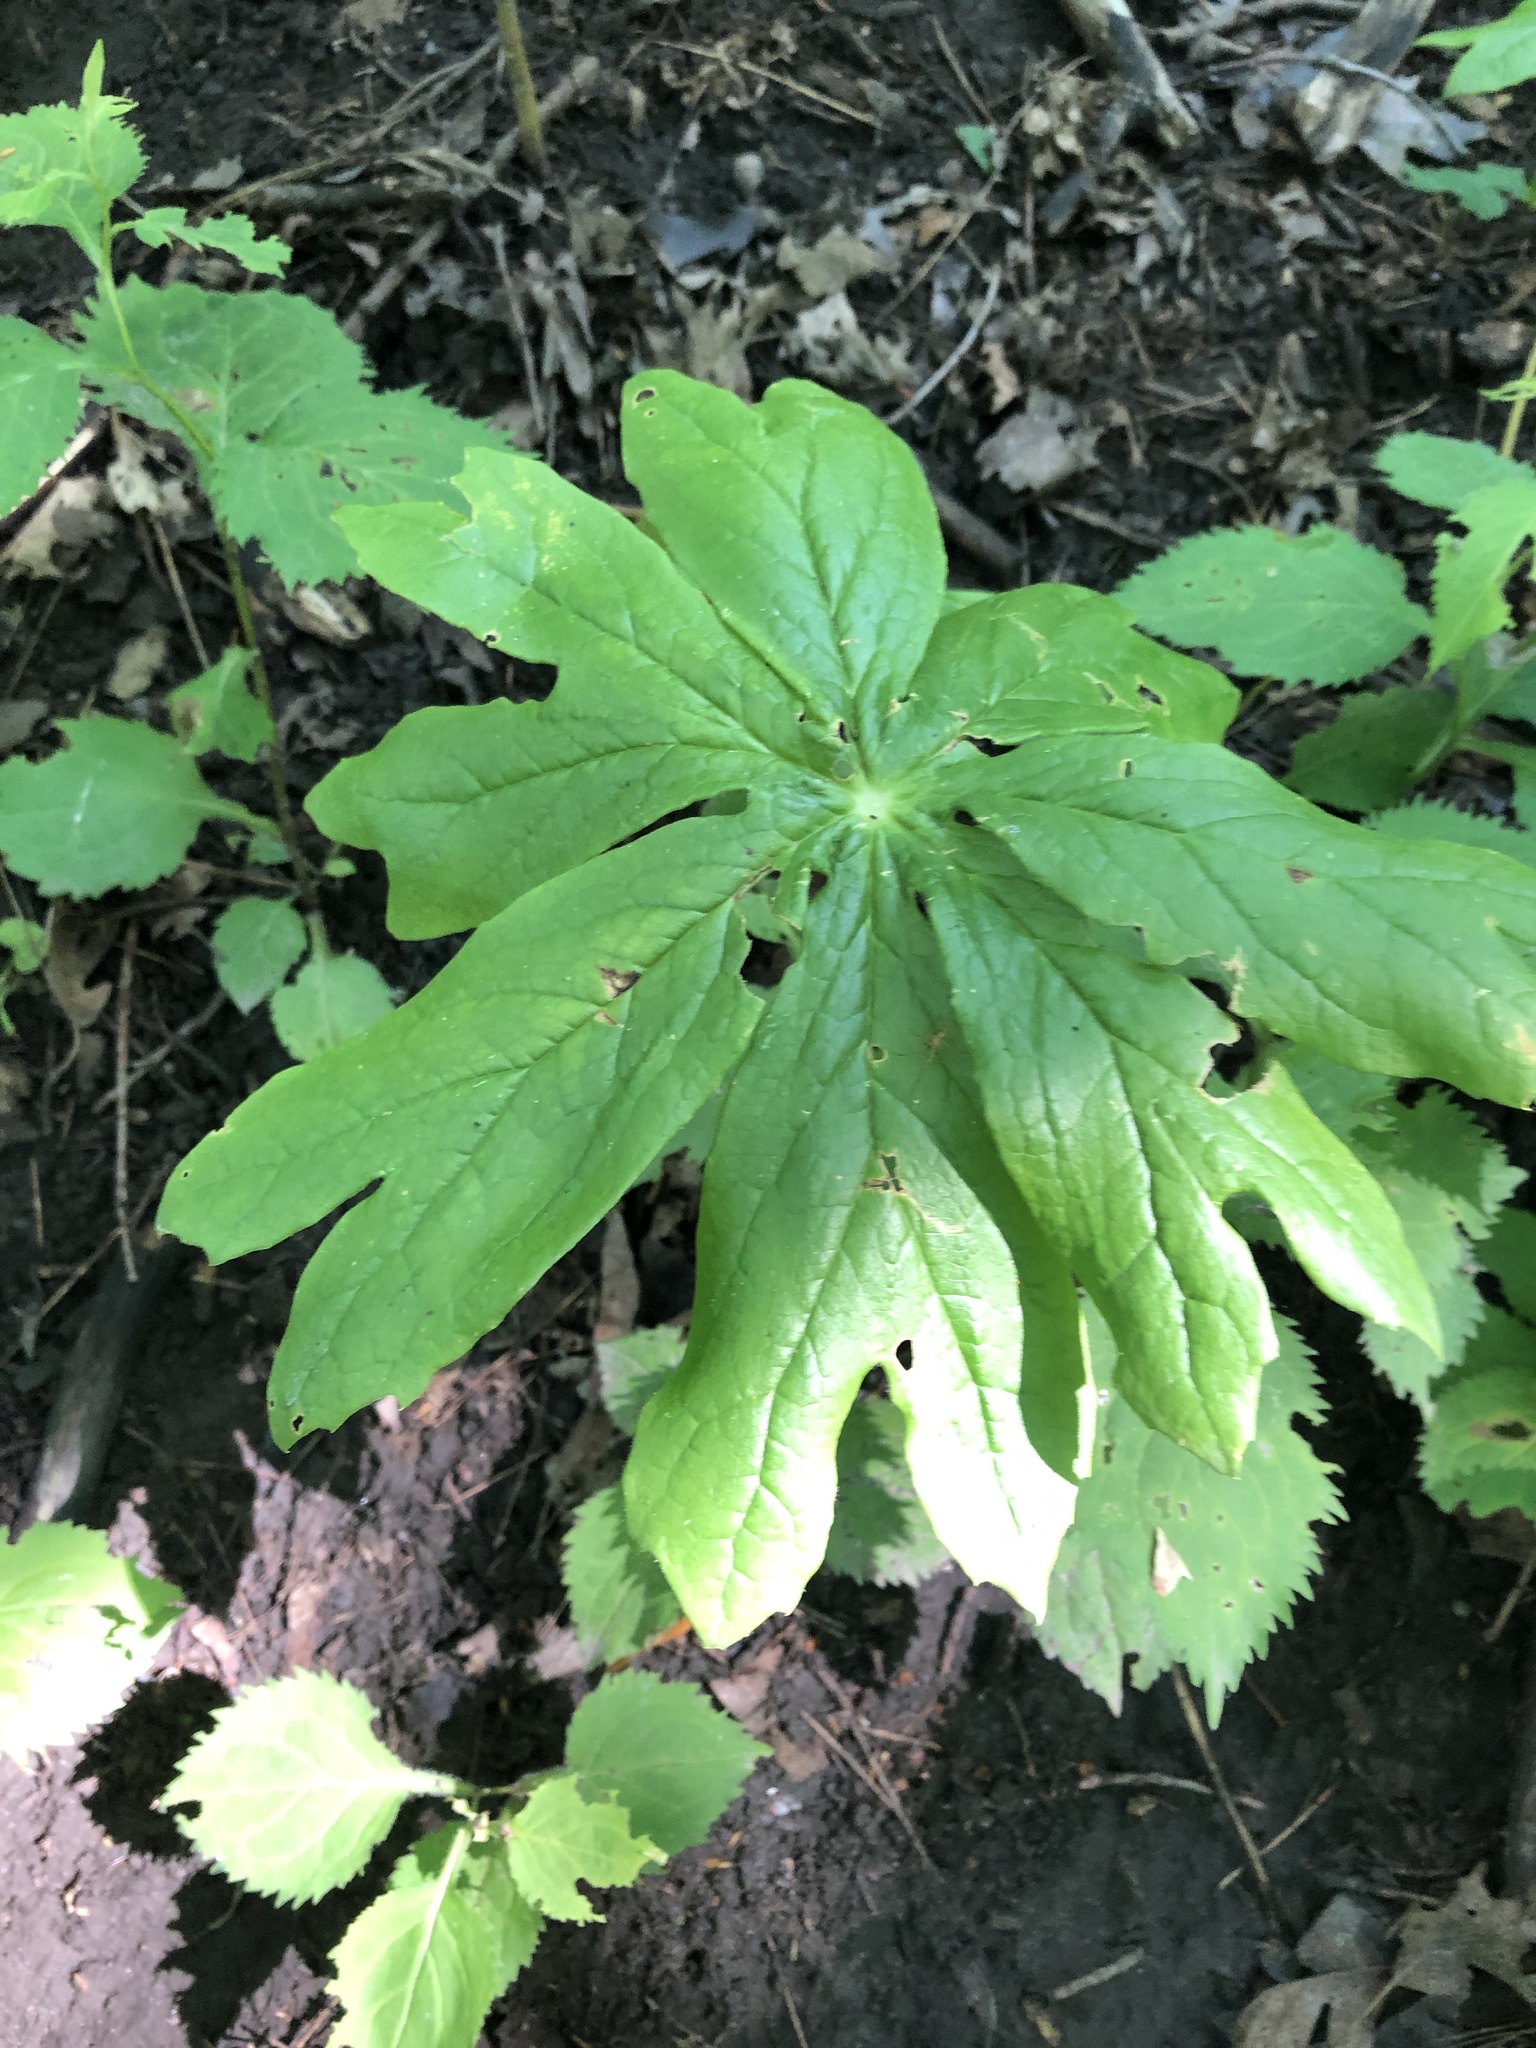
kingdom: Plantae
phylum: Tracheophyta
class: Magnoliopsida
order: Ranunculales
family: Berberidaceae
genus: Podophyllum
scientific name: Podophyllum peltatum
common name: Wild mandrake
